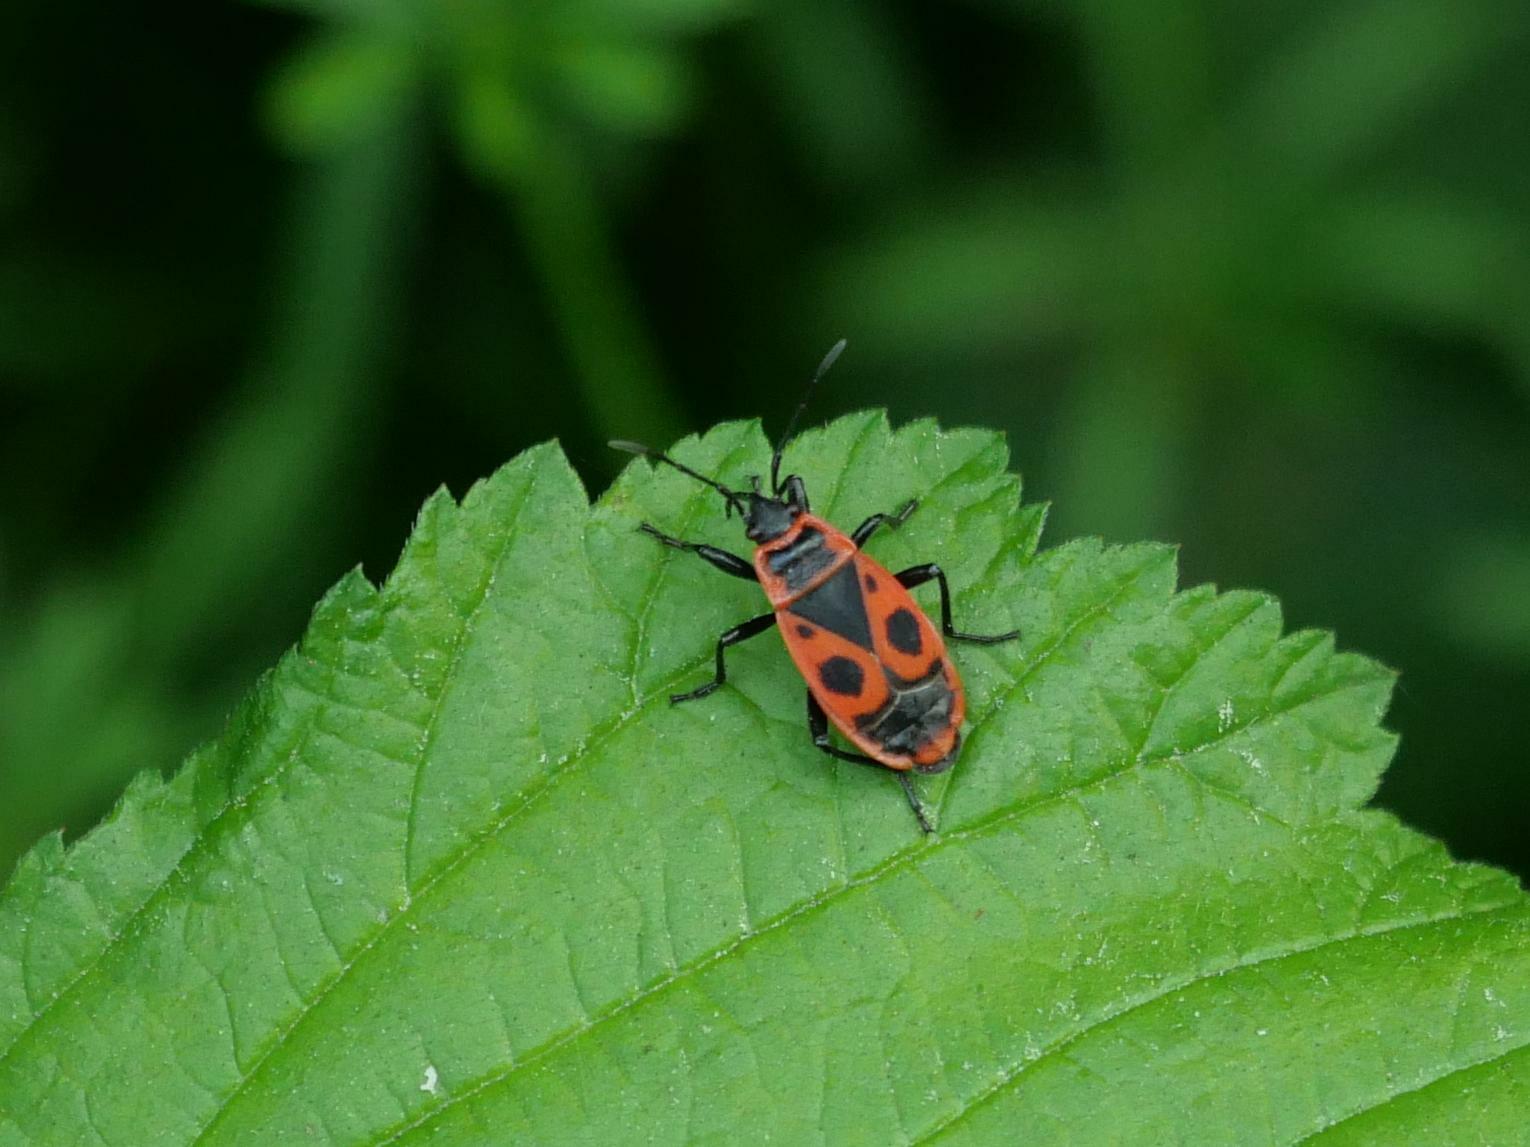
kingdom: Animalia
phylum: Arthropoda
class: Insecta
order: Hemiptera
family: Pyrrhocoridae
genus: Pyrrhocoris
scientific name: Pyrrhocoris apterus
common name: Firebug
